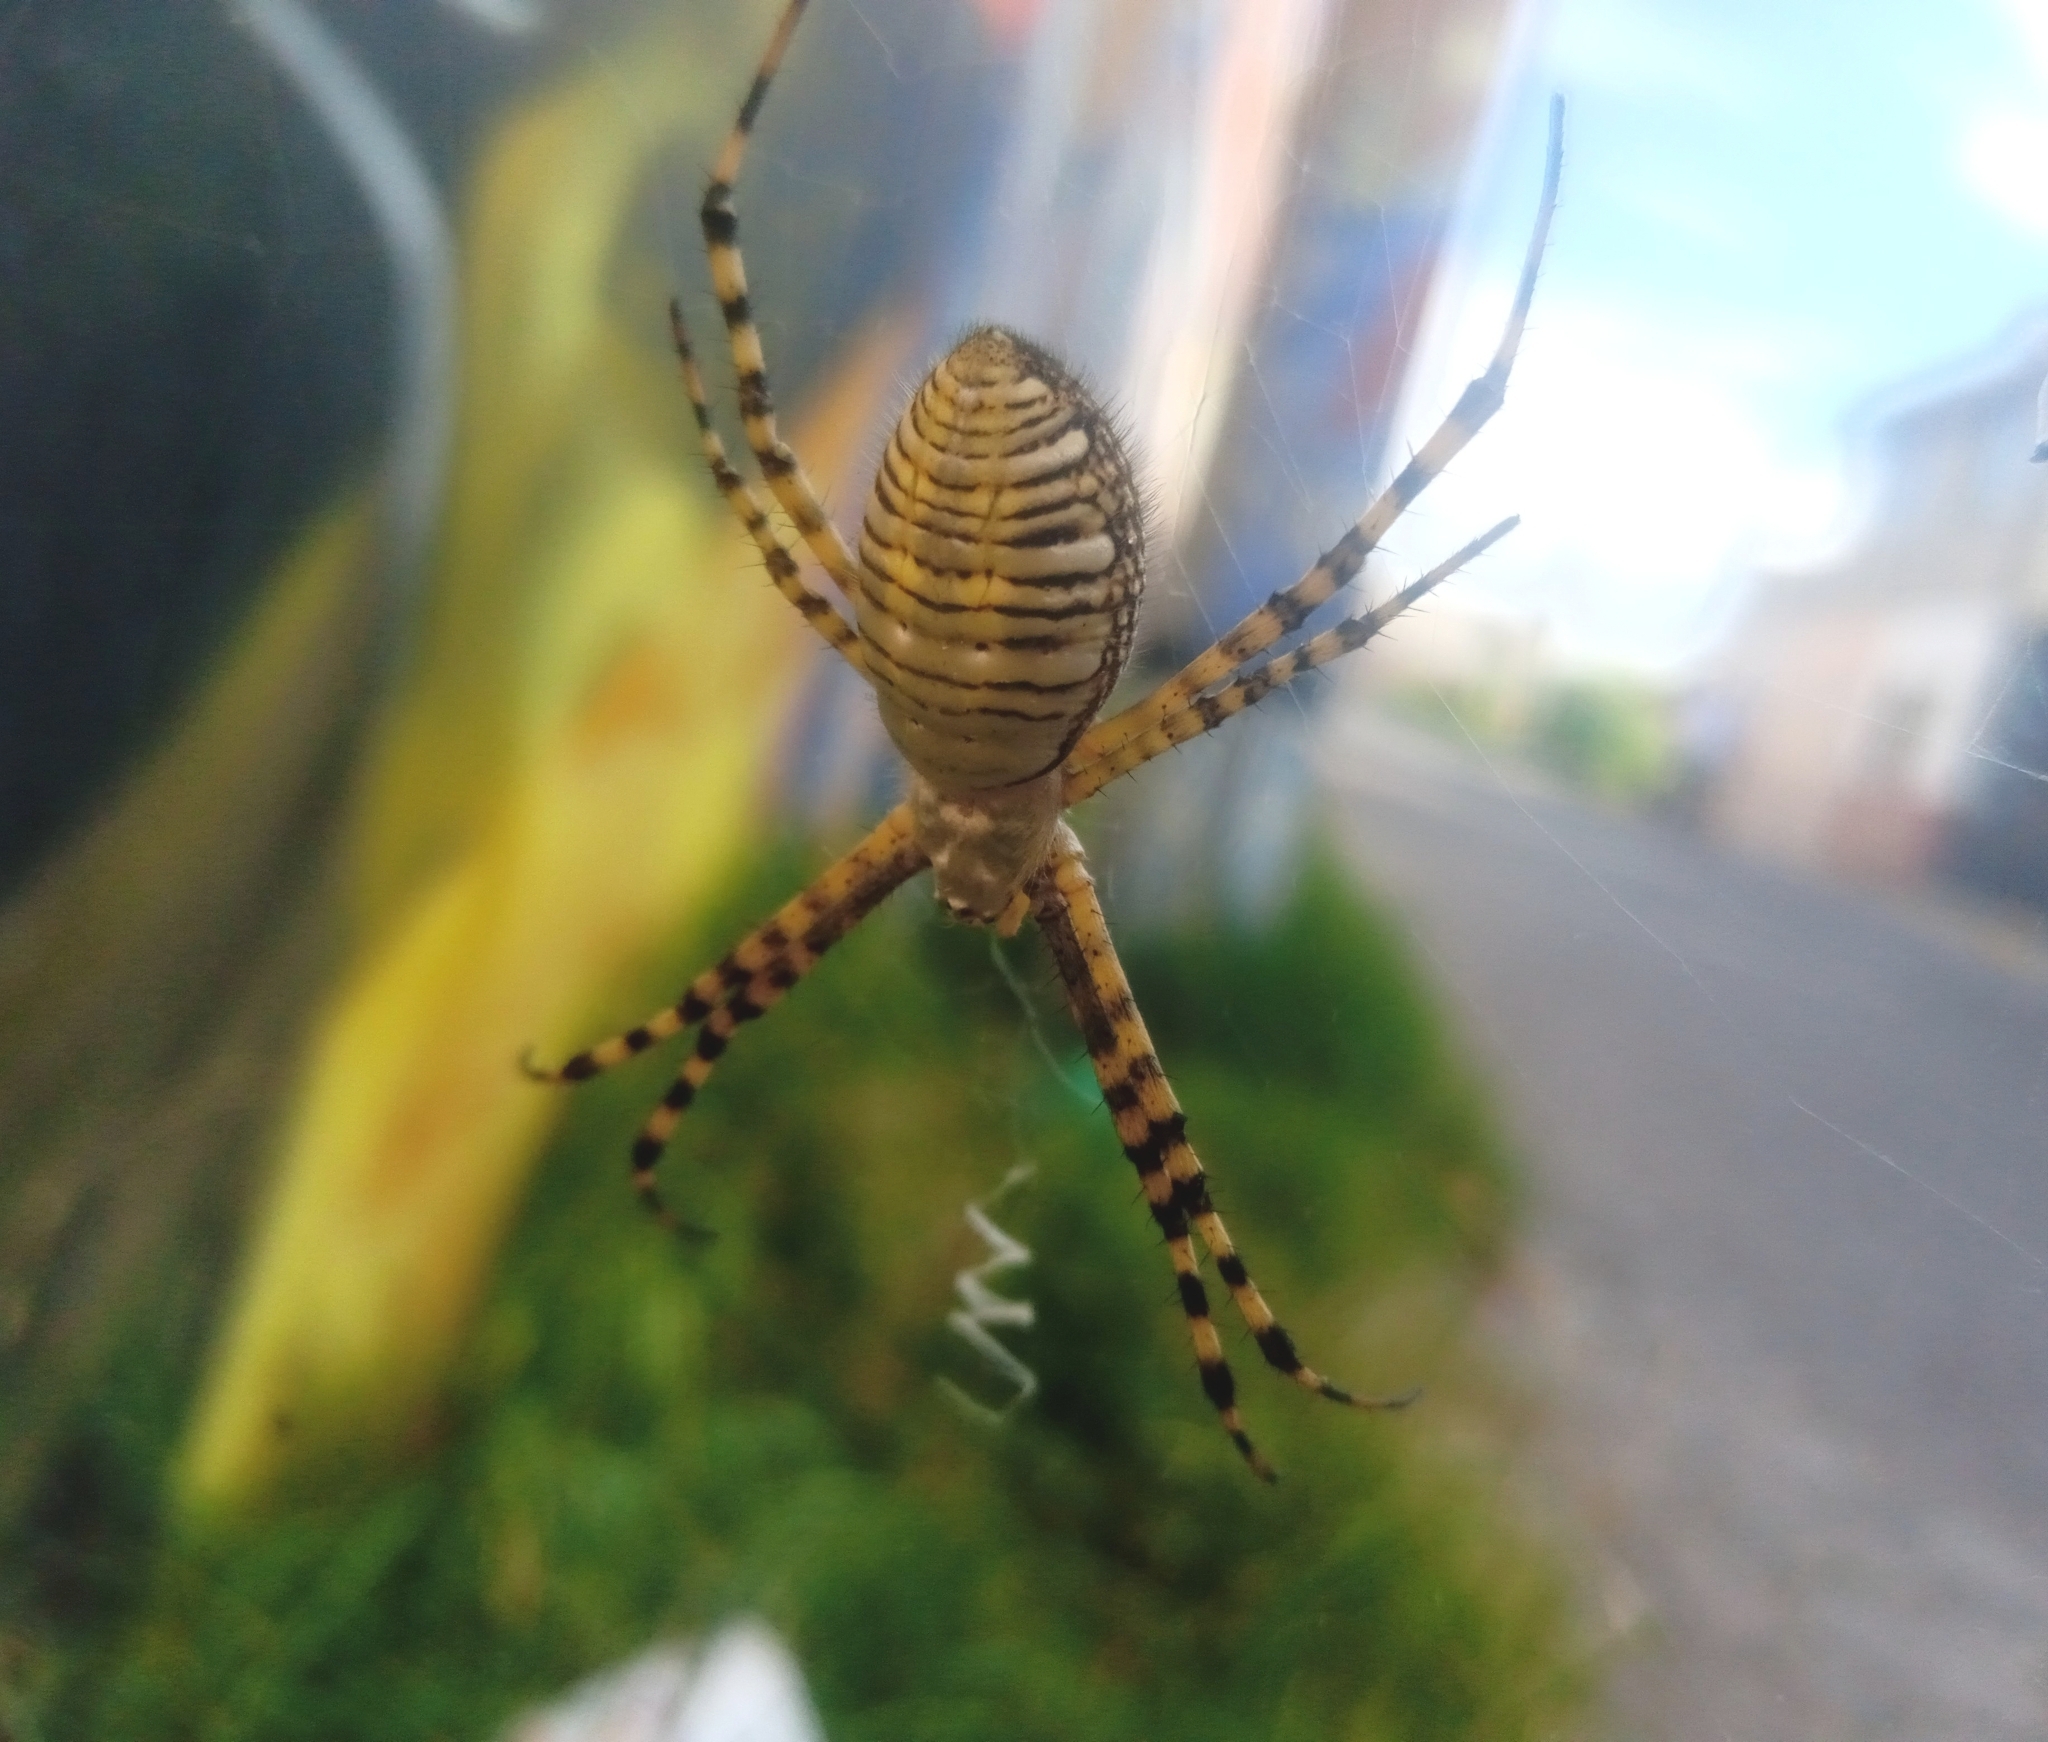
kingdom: Animalia
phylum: Arthropoda
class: Arachnida
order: Araneae
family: Araneidae
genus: Argiope
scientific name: Argiope trifasciata
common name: Banded garden spider
